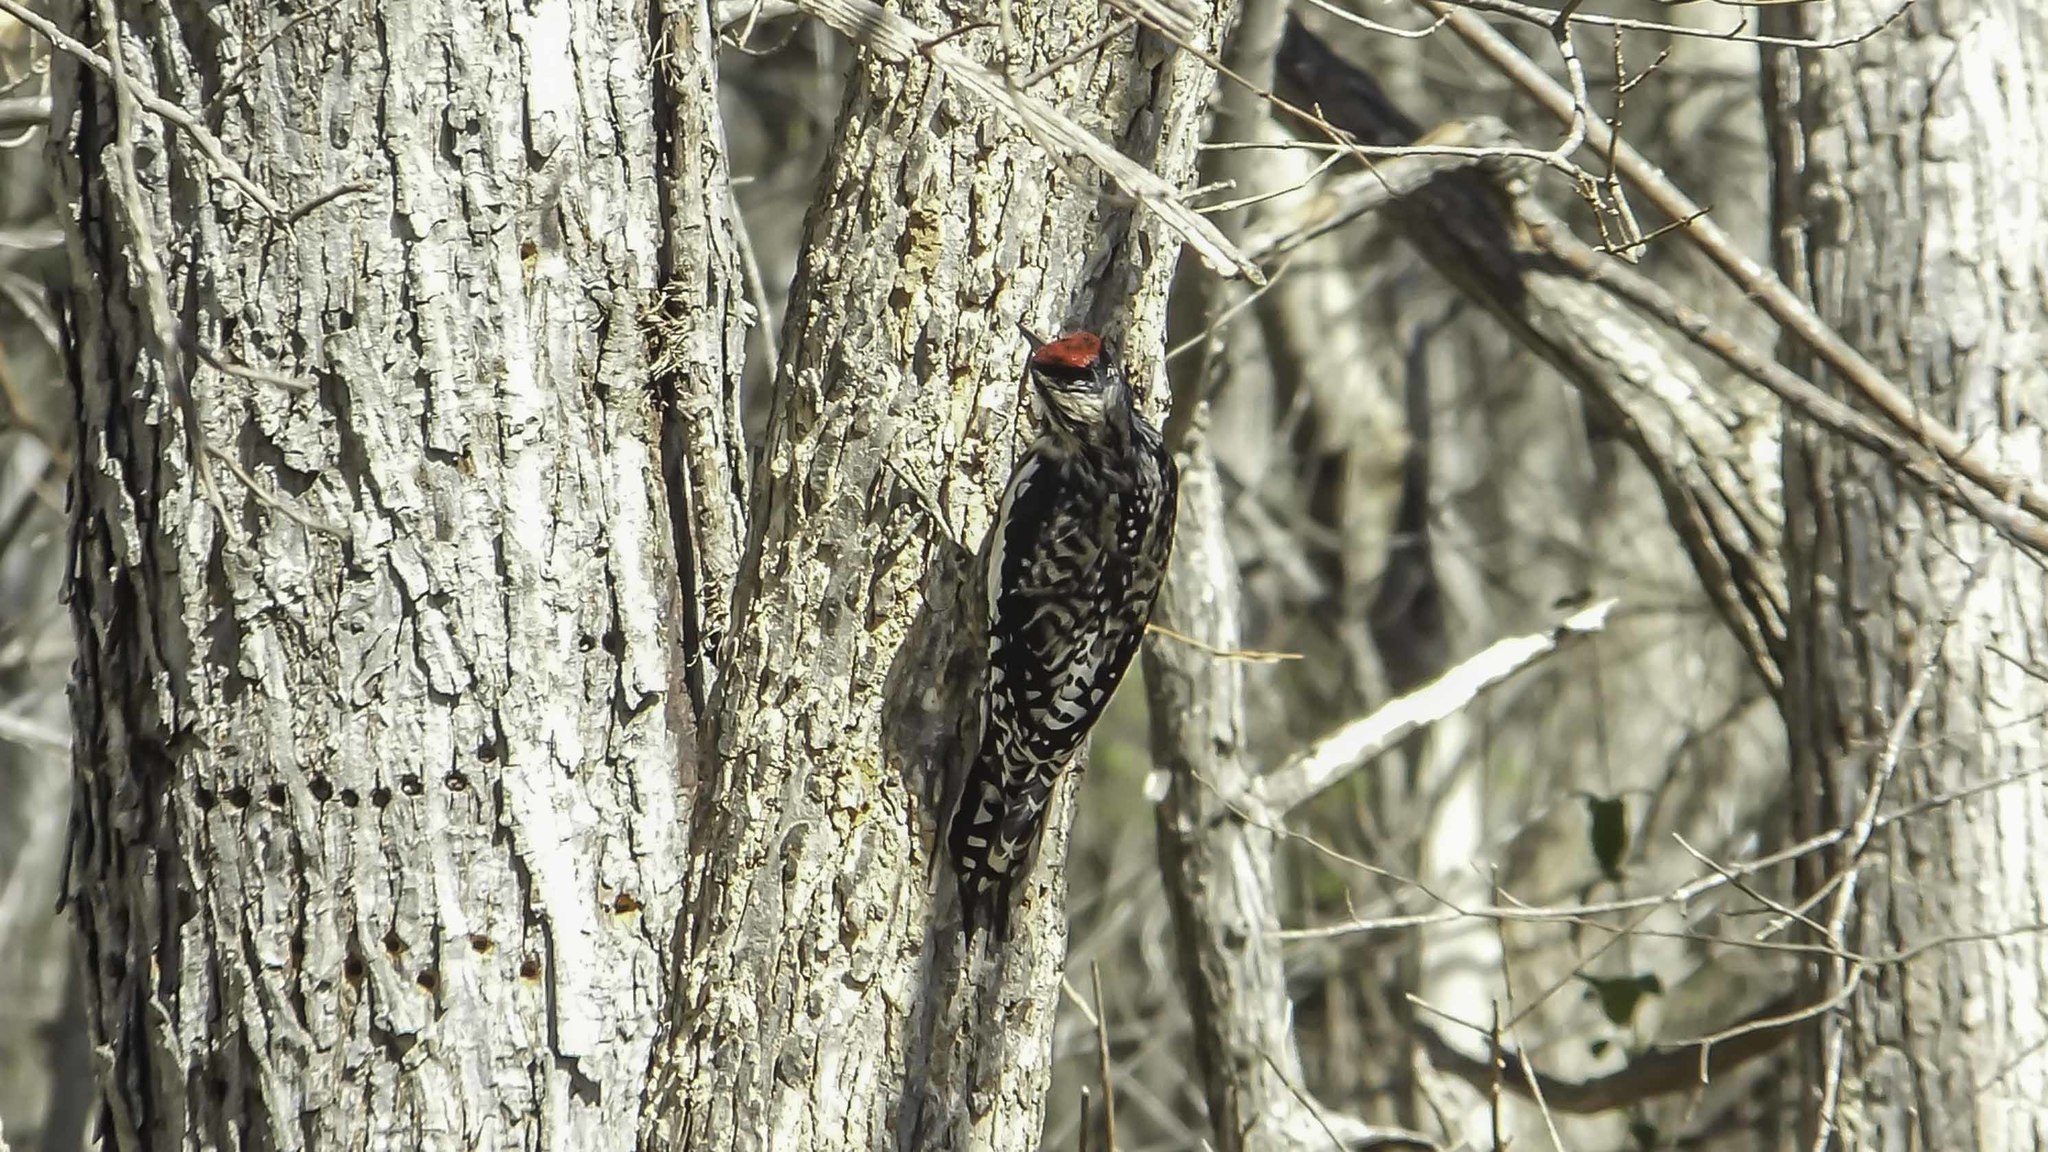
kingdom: Animalia
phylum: Chordata
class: Aves
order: Piciformes
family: Picidae
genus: Sphyrapicus
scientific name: Sphyrapicus varius
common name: Yellow-bellied sapsucker
